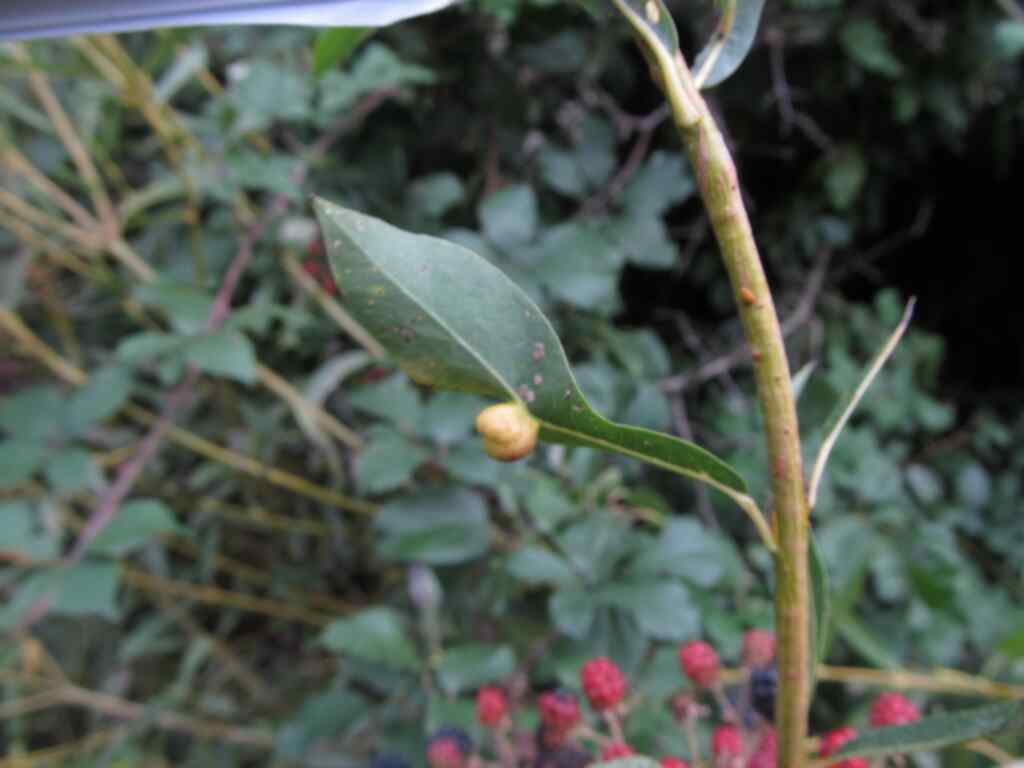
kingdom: Animalia
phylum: Arthropoda
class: Insecta
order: Hymenoptera
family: Tenthredinidae
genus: Euura
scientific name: Euura viminalis
